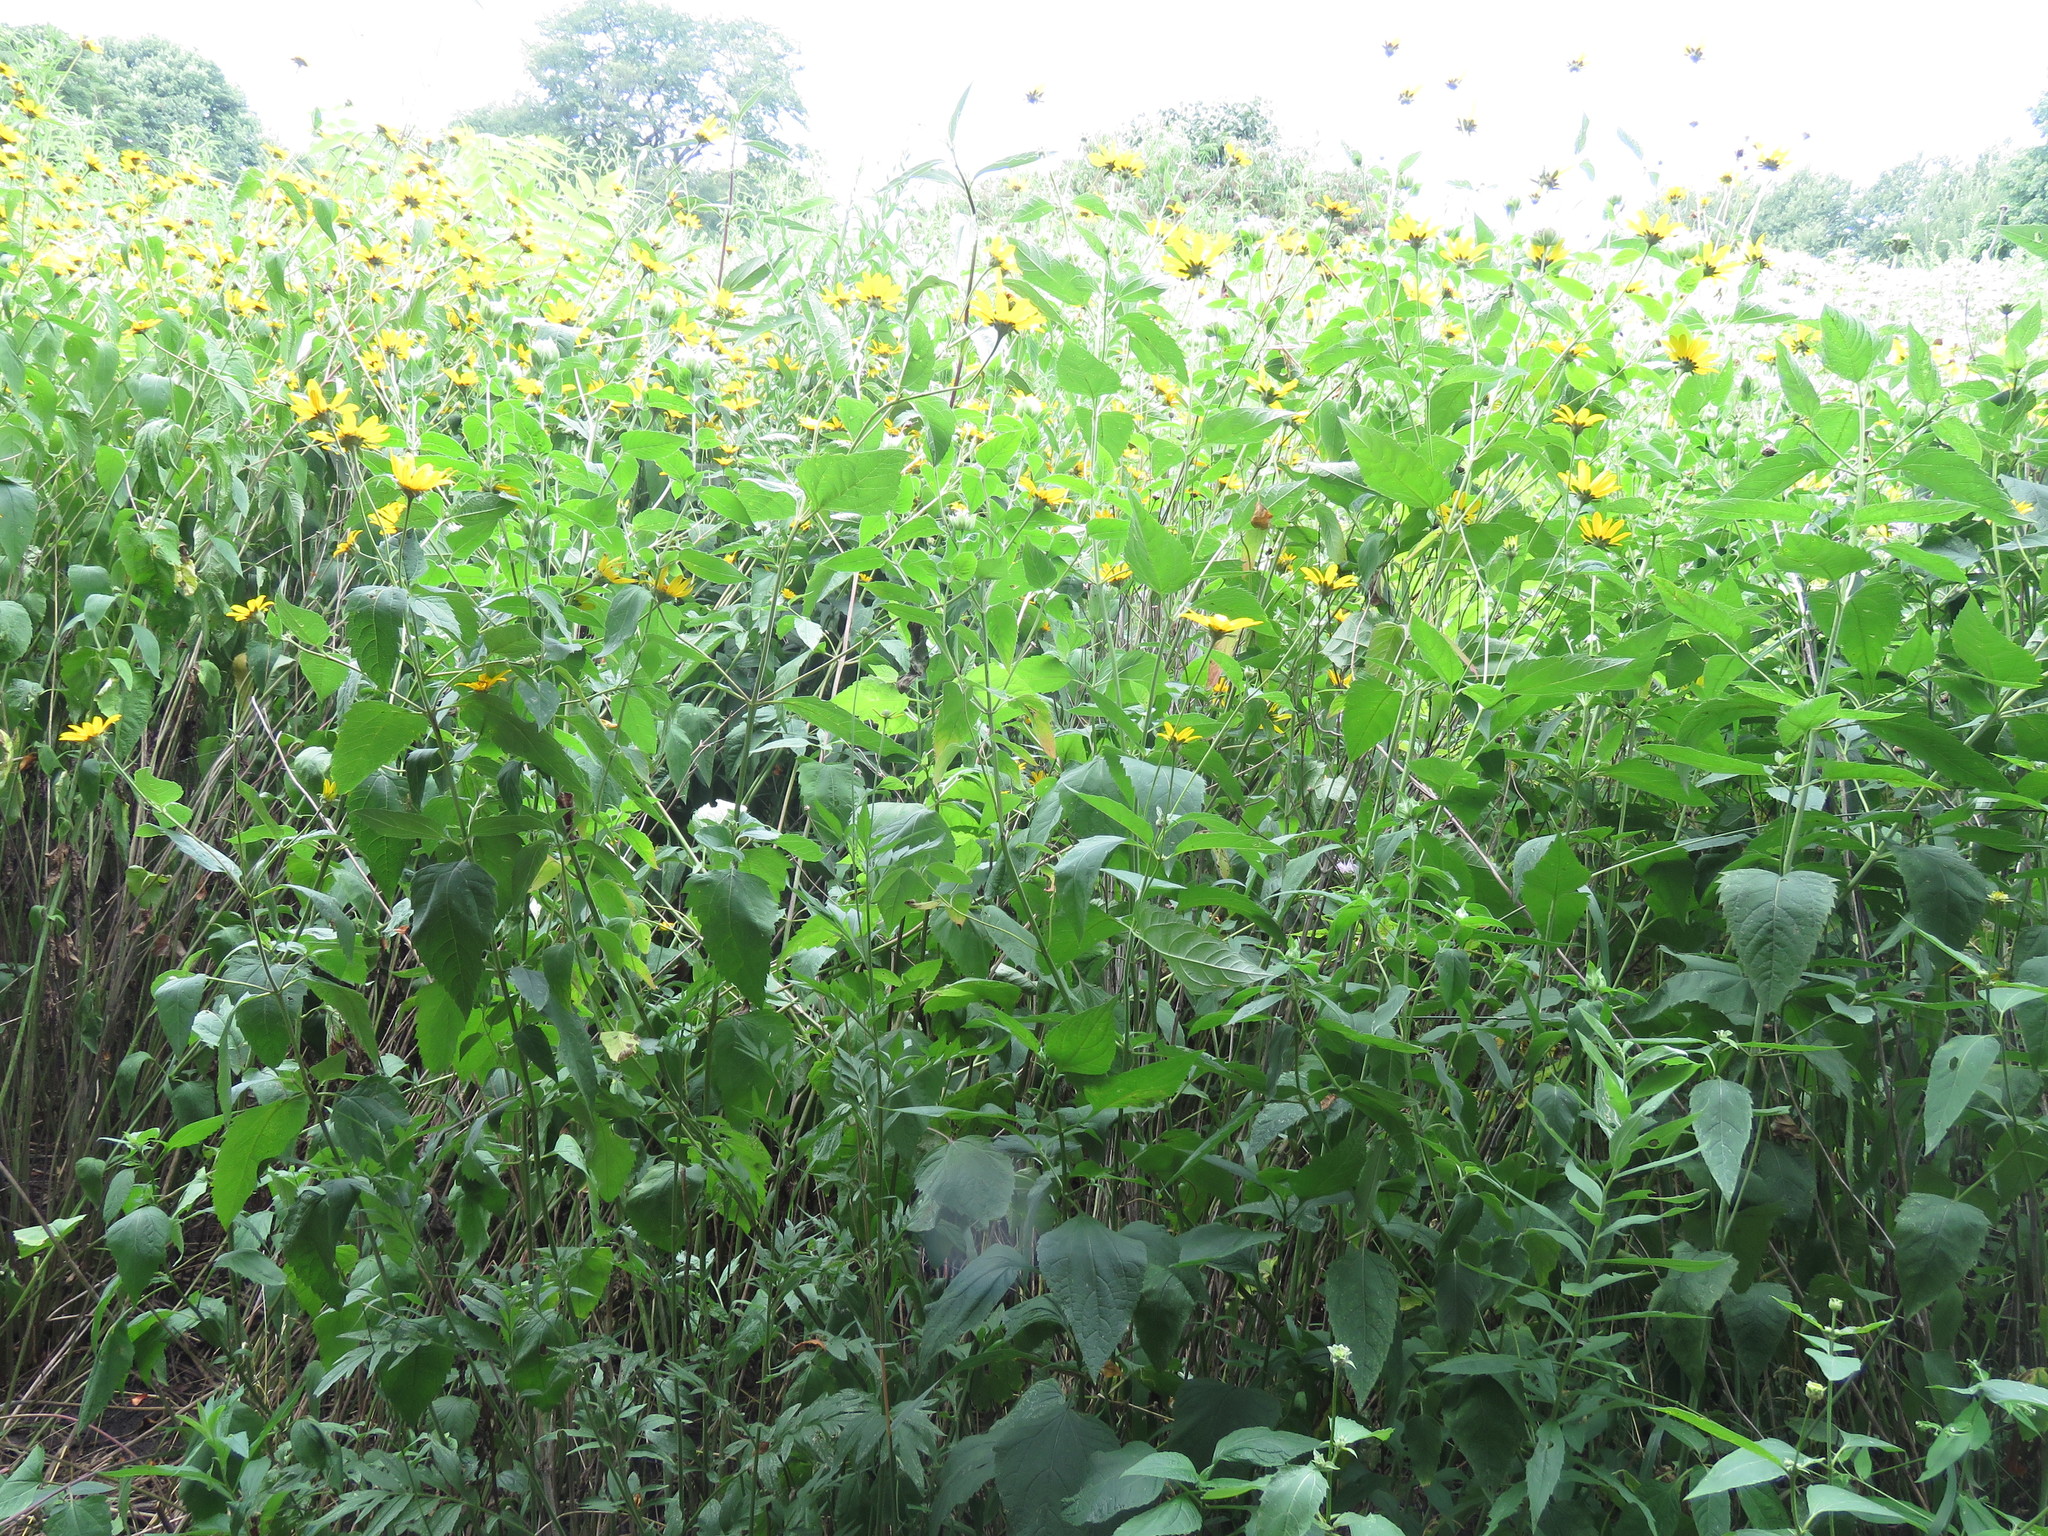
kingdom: Plantae
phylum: Tracheophyta
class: Magnoliopsida
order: Asterales
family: Asteraceae
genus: Heliopsis
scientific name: Heliopsis helianthoides
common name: False sunflower
